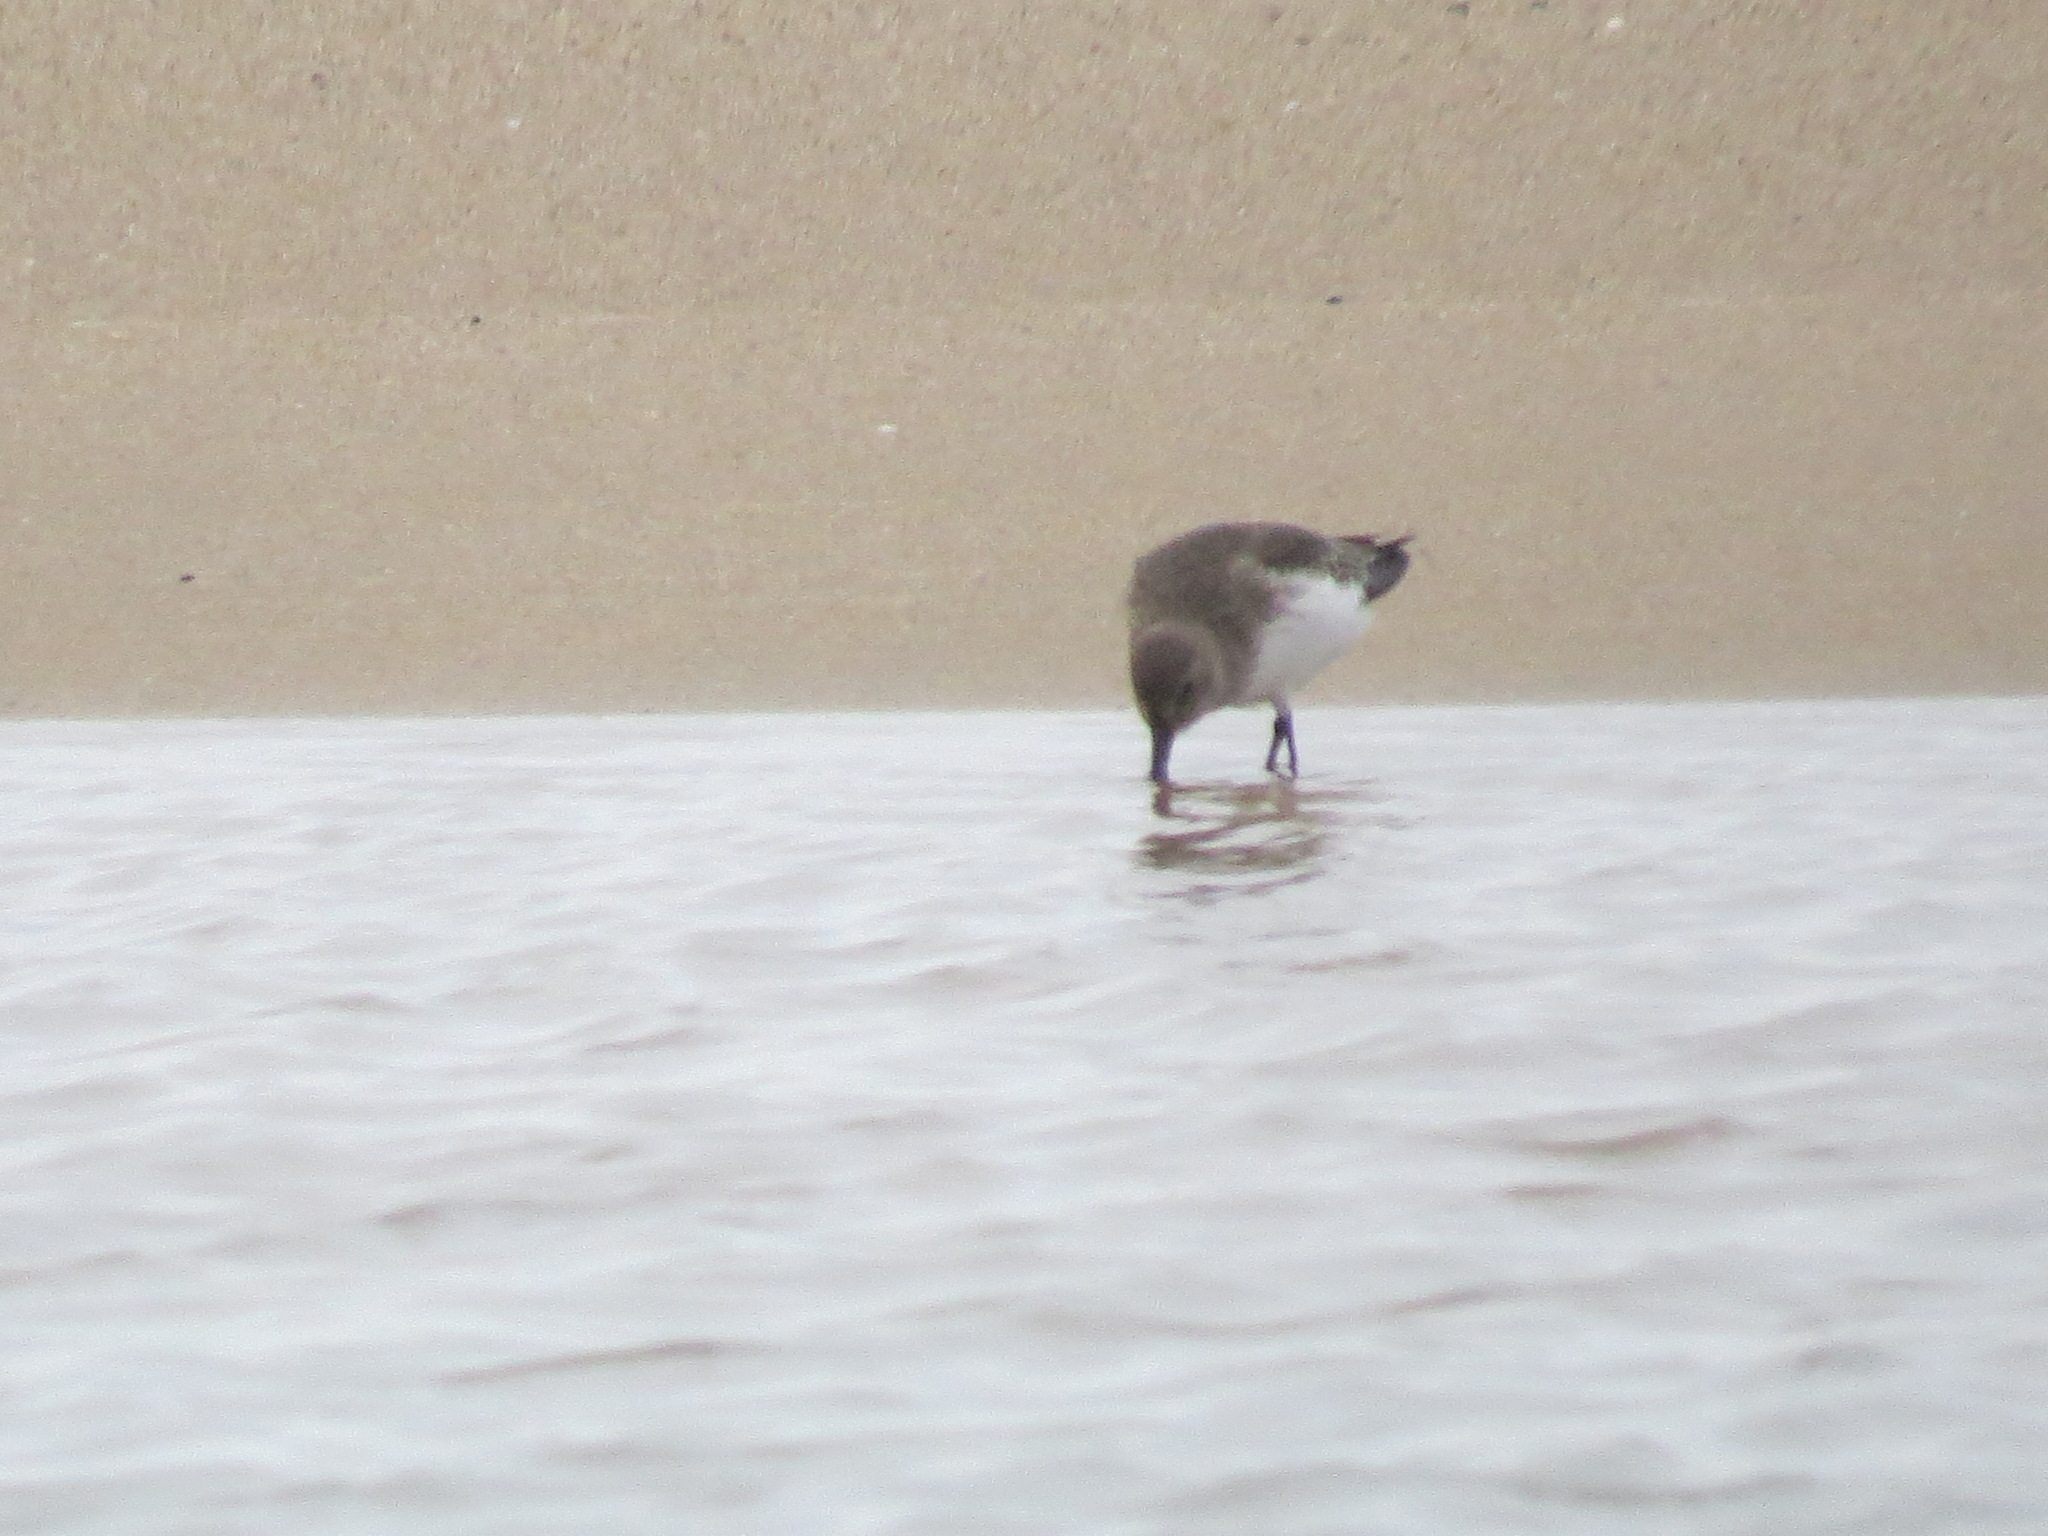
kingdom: Animalia
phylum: Chordata
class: Aves
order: Charadriiformes
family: Scolopacidae
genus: Calidris
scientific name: Calidris alpina
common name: Dunlin
